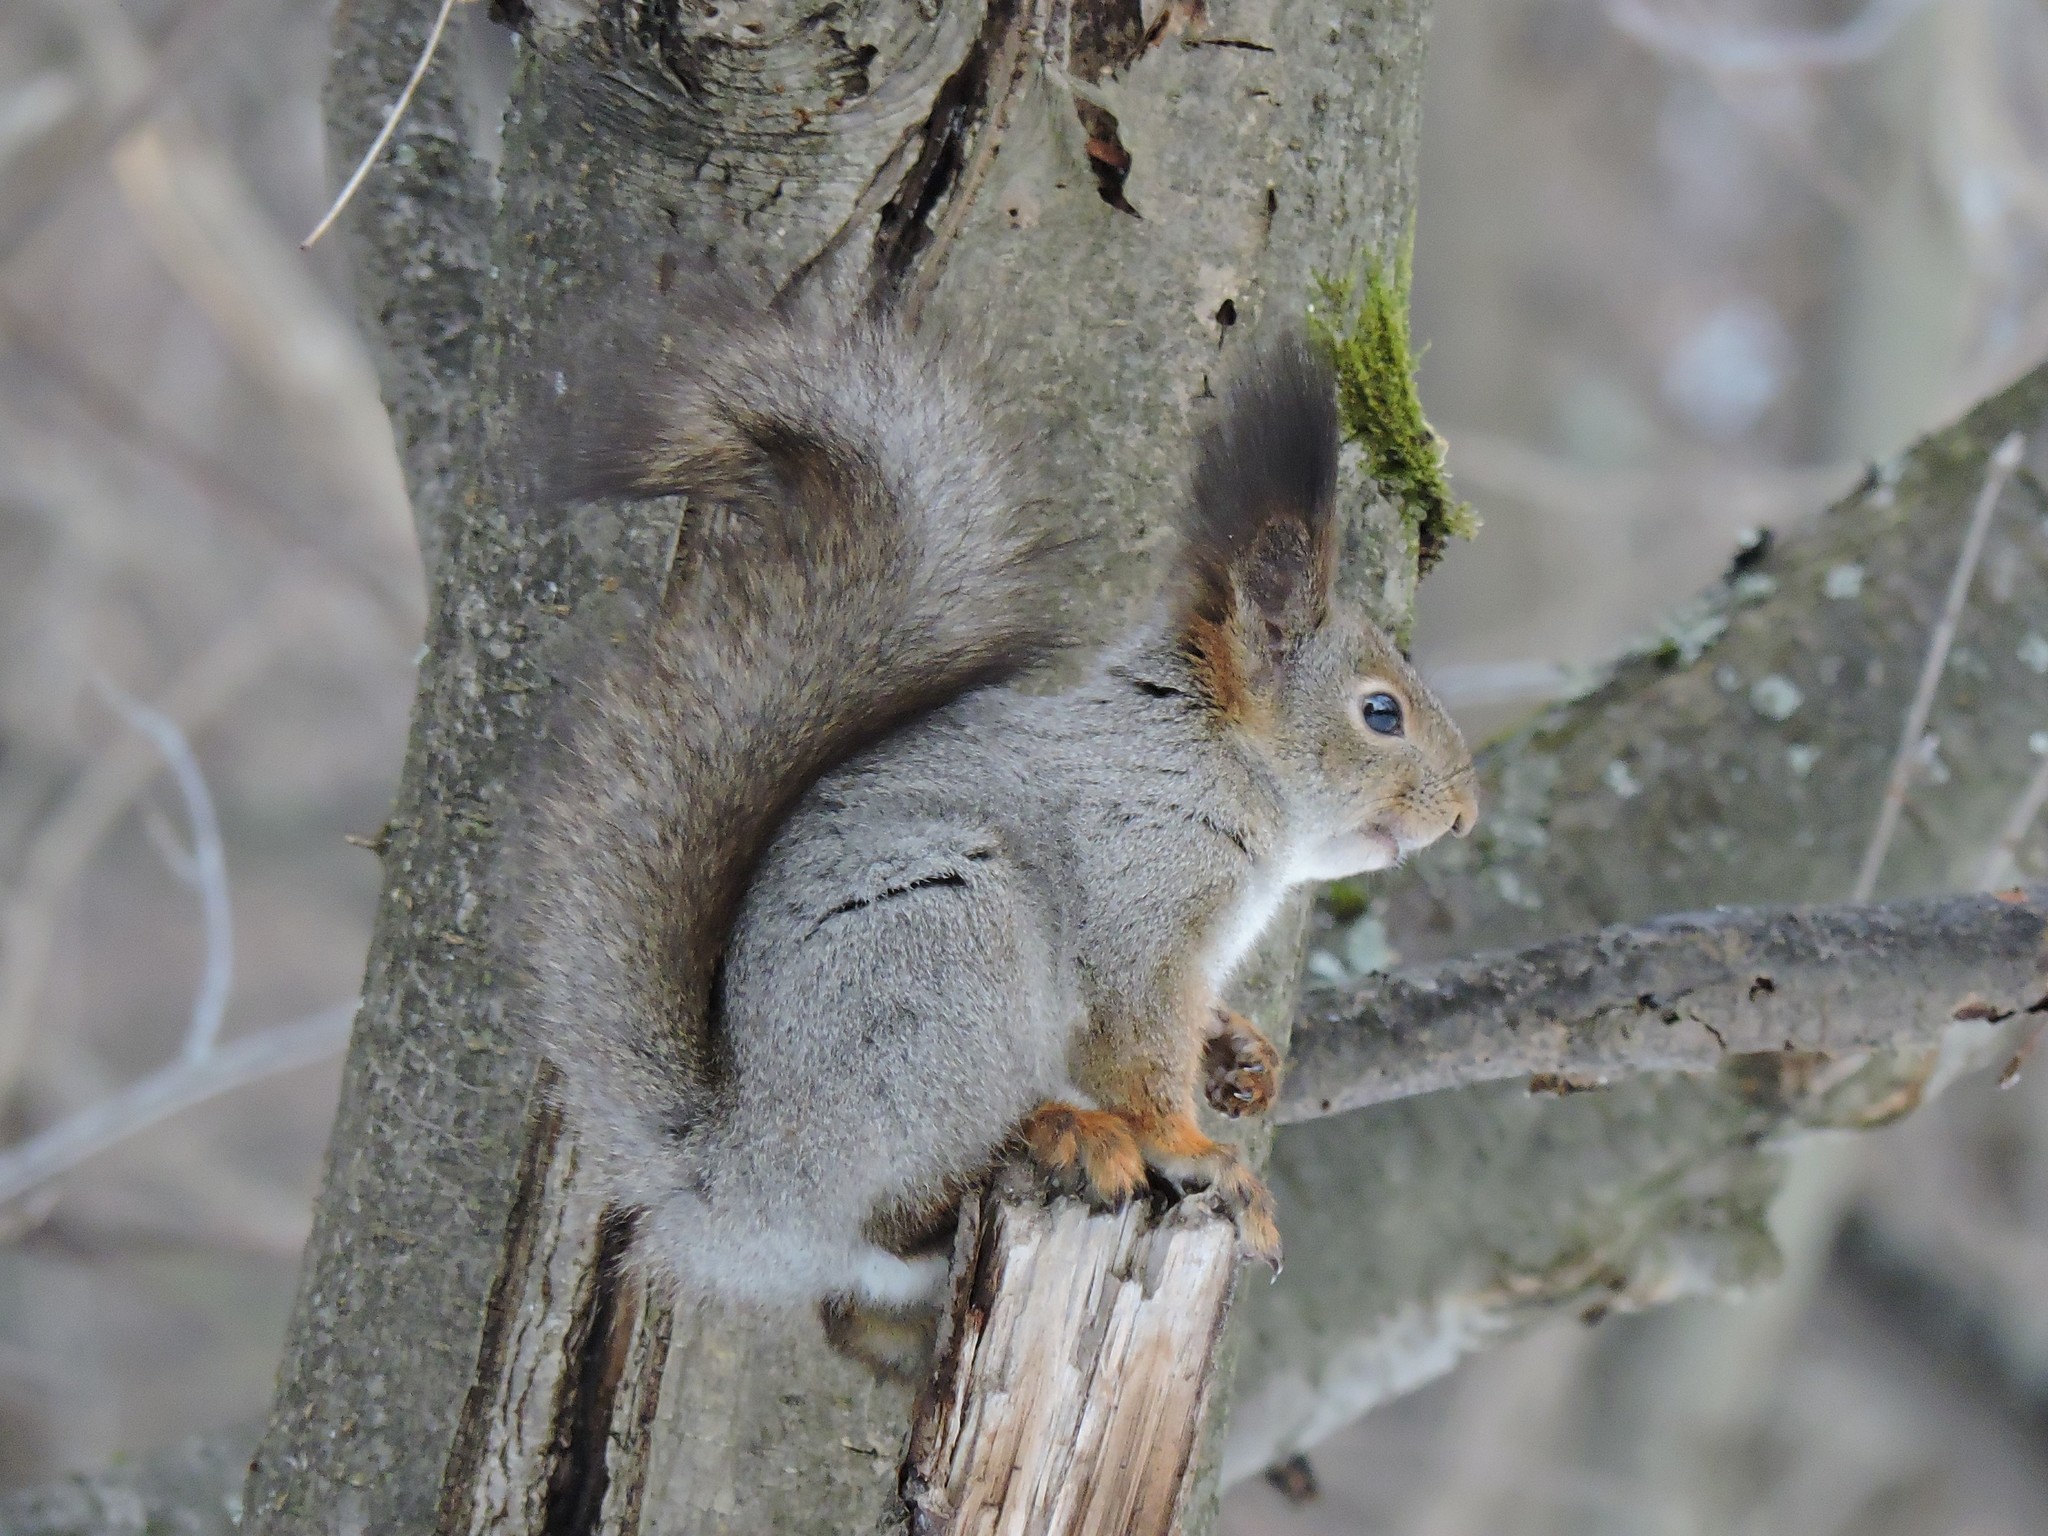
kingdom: Animalia
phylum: Chordata
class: Mammalia
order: Rodentia
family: Sciuridae
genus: Sciurus
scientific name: Sciurus vulgaris
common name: Eurasian red squirrel
